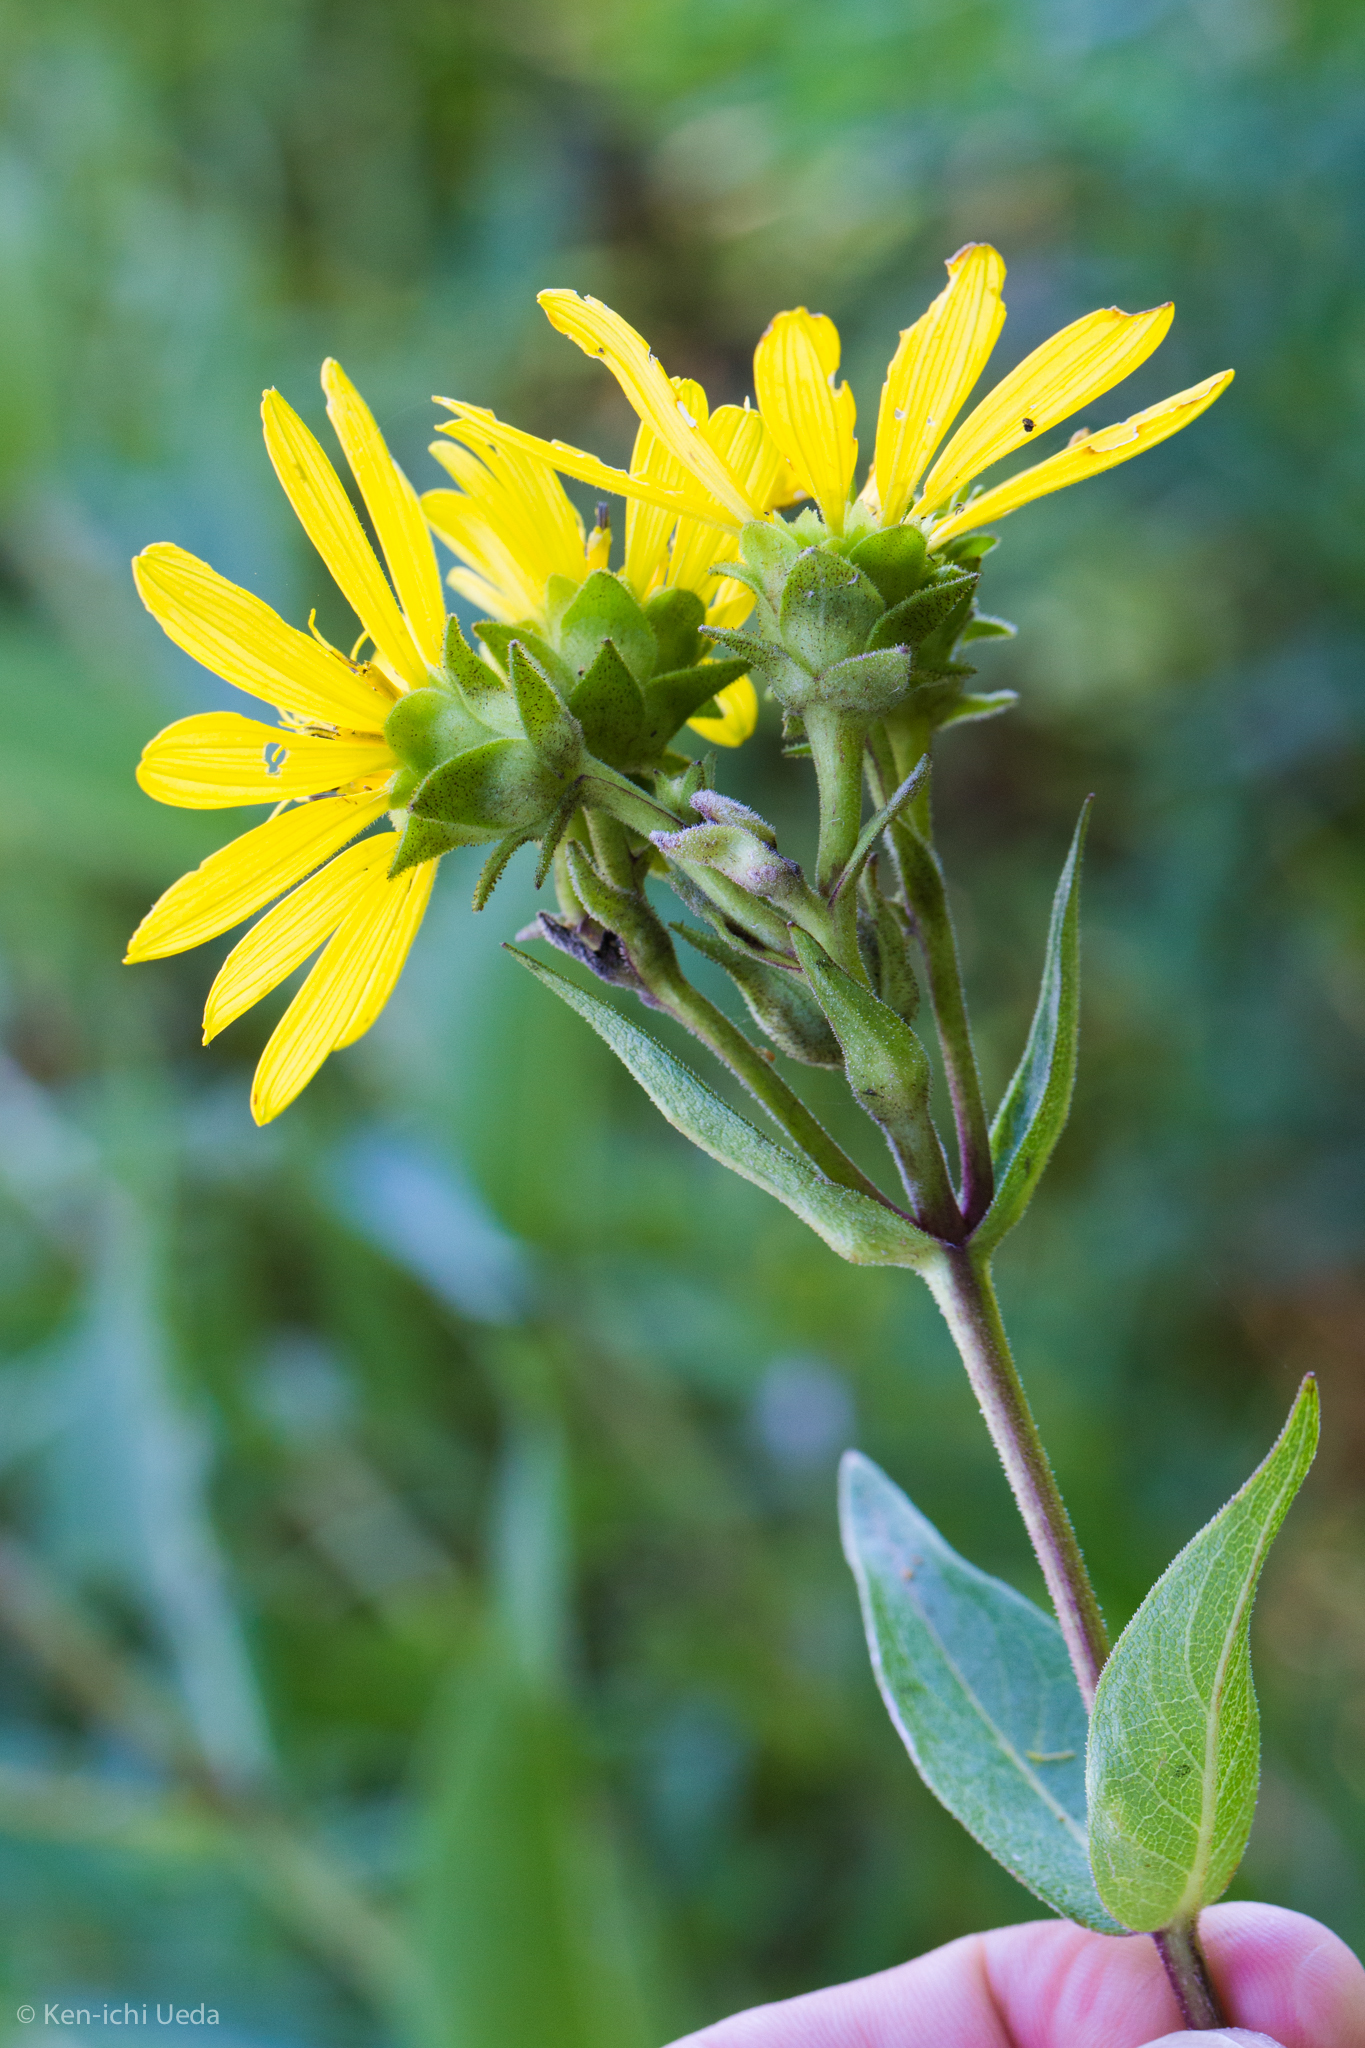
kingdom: Plantae
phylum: Tracheophyta
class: Magnoliopsida
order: Asterales
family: Asteraceae
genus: Silphium
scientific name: Silphium integrifolium
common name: Whole-leaf rosinweed
